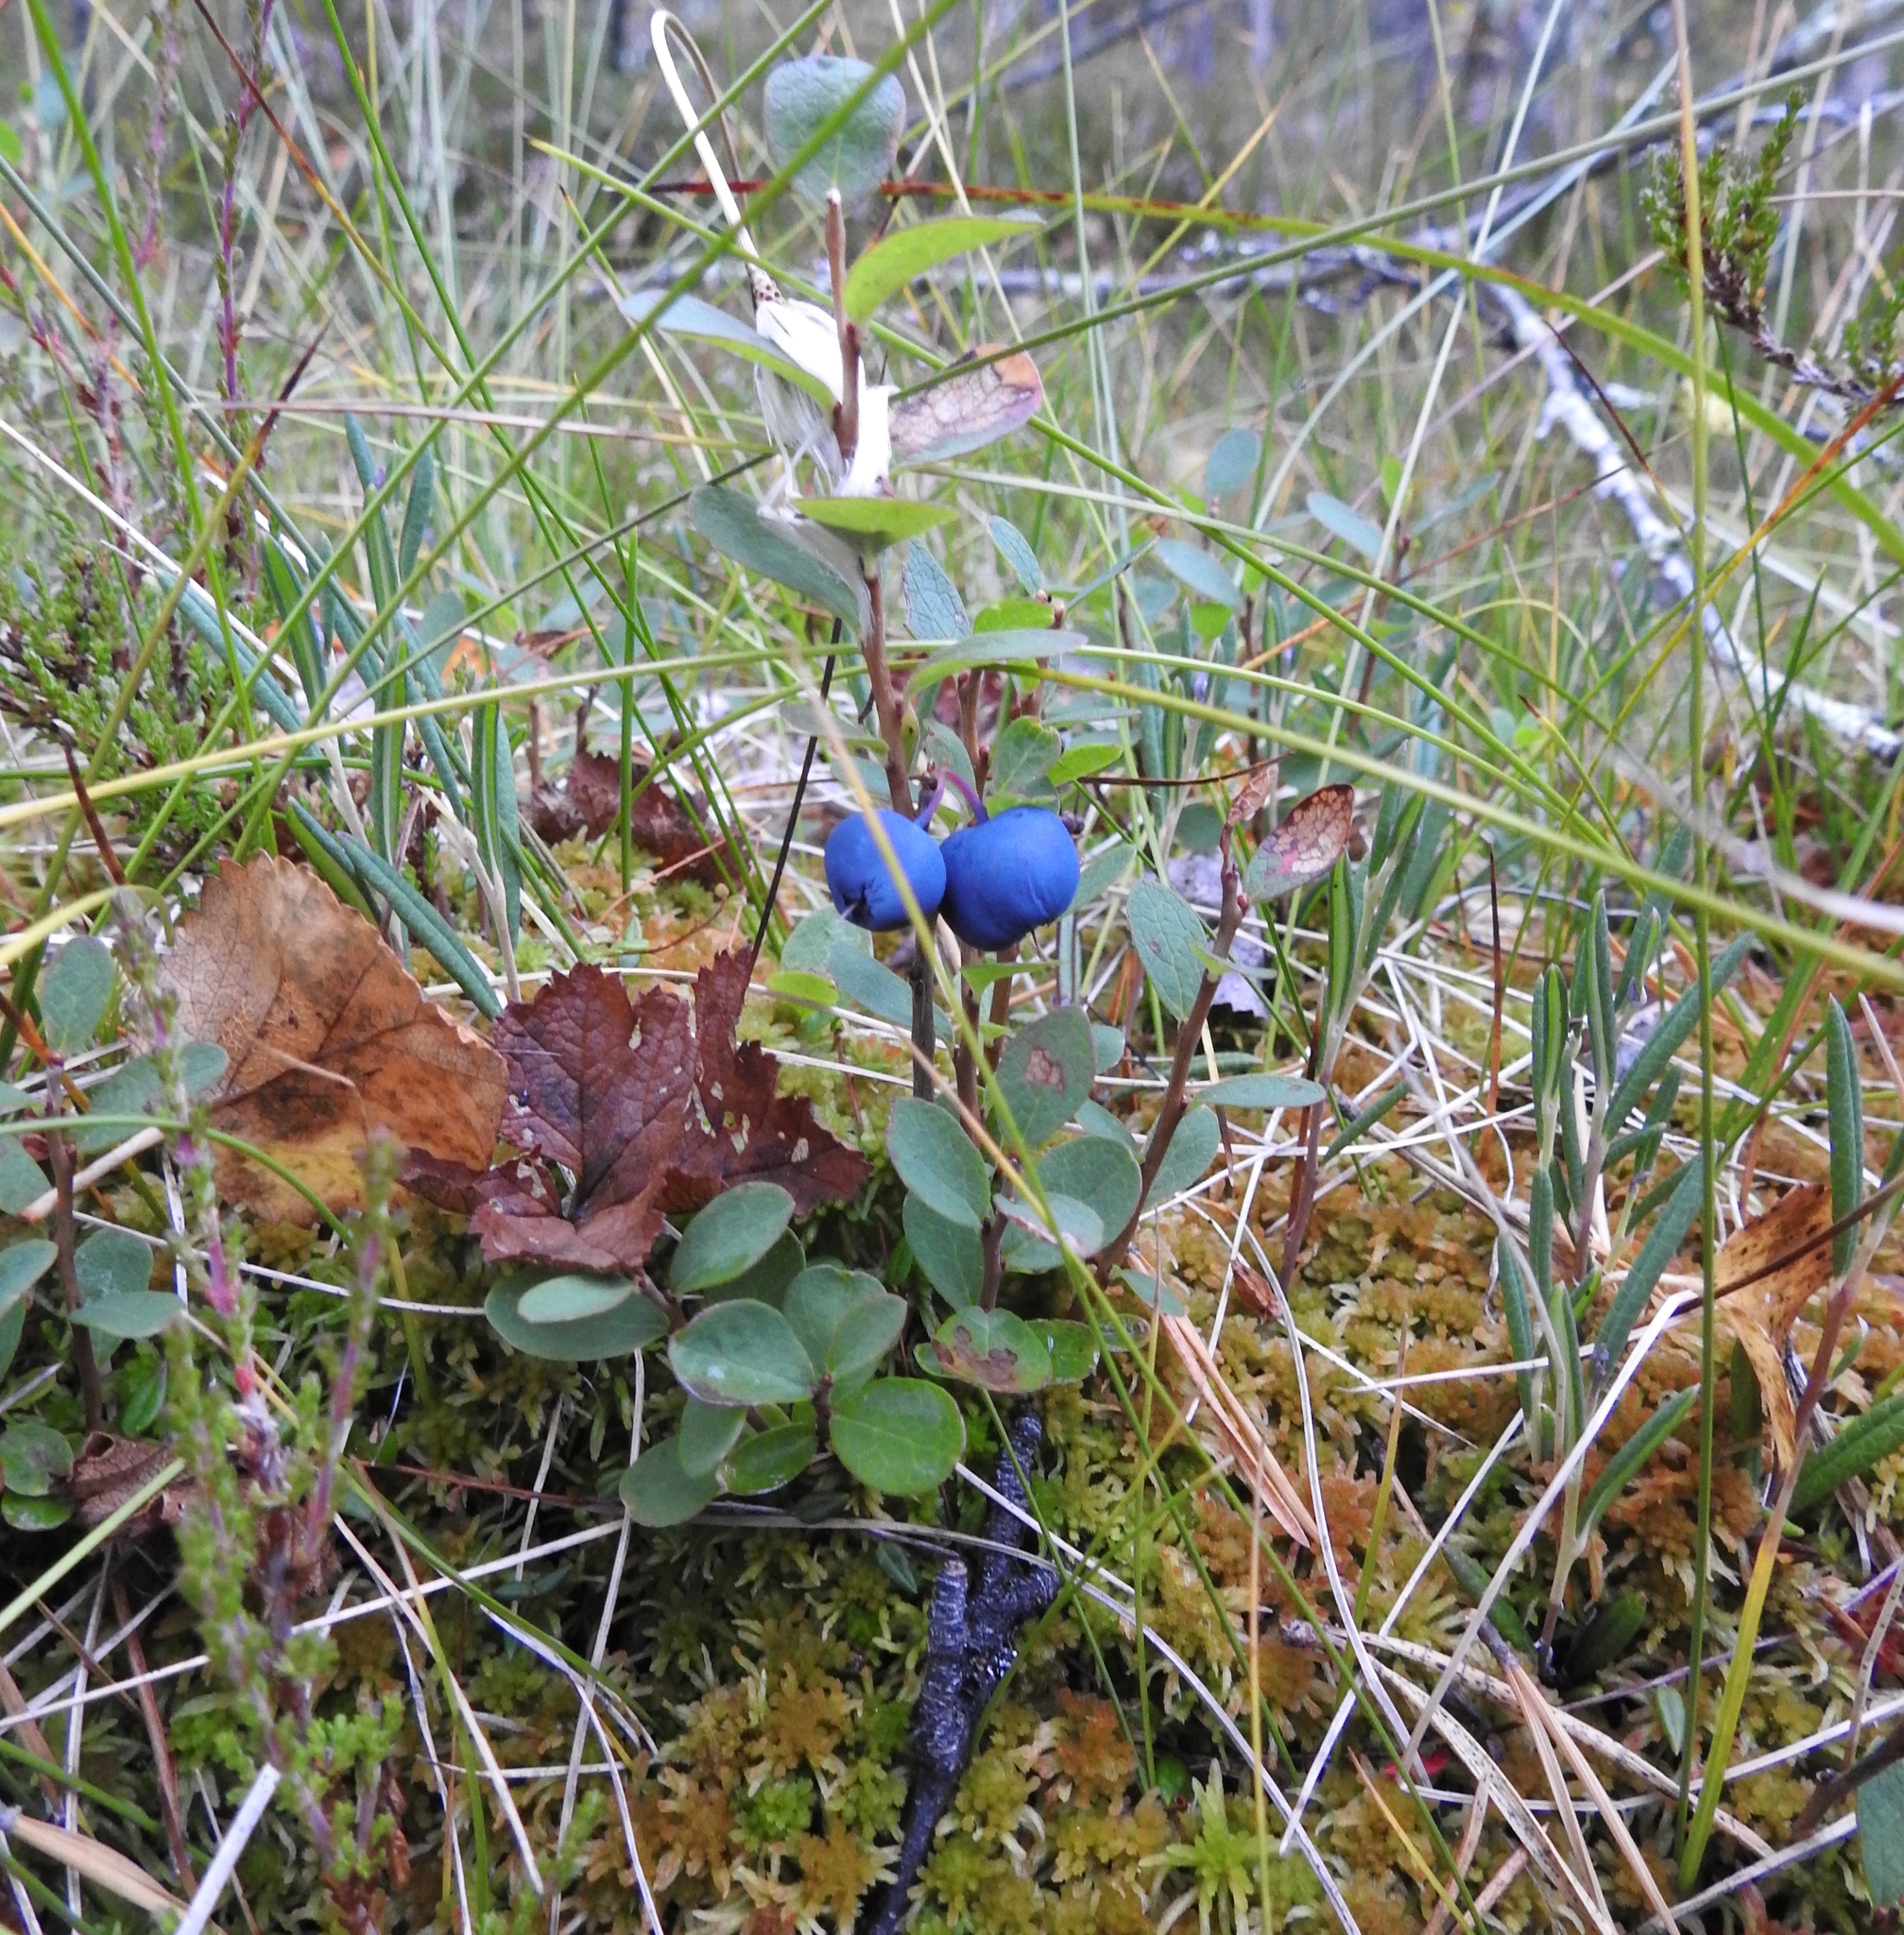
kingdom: Plantae
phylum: Tracheophyta
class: Magnoliopsida
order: Ericales
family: Ericaceae
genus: Vaccinium
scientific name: Vaccinium uliginosum
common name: Bog bilberry
